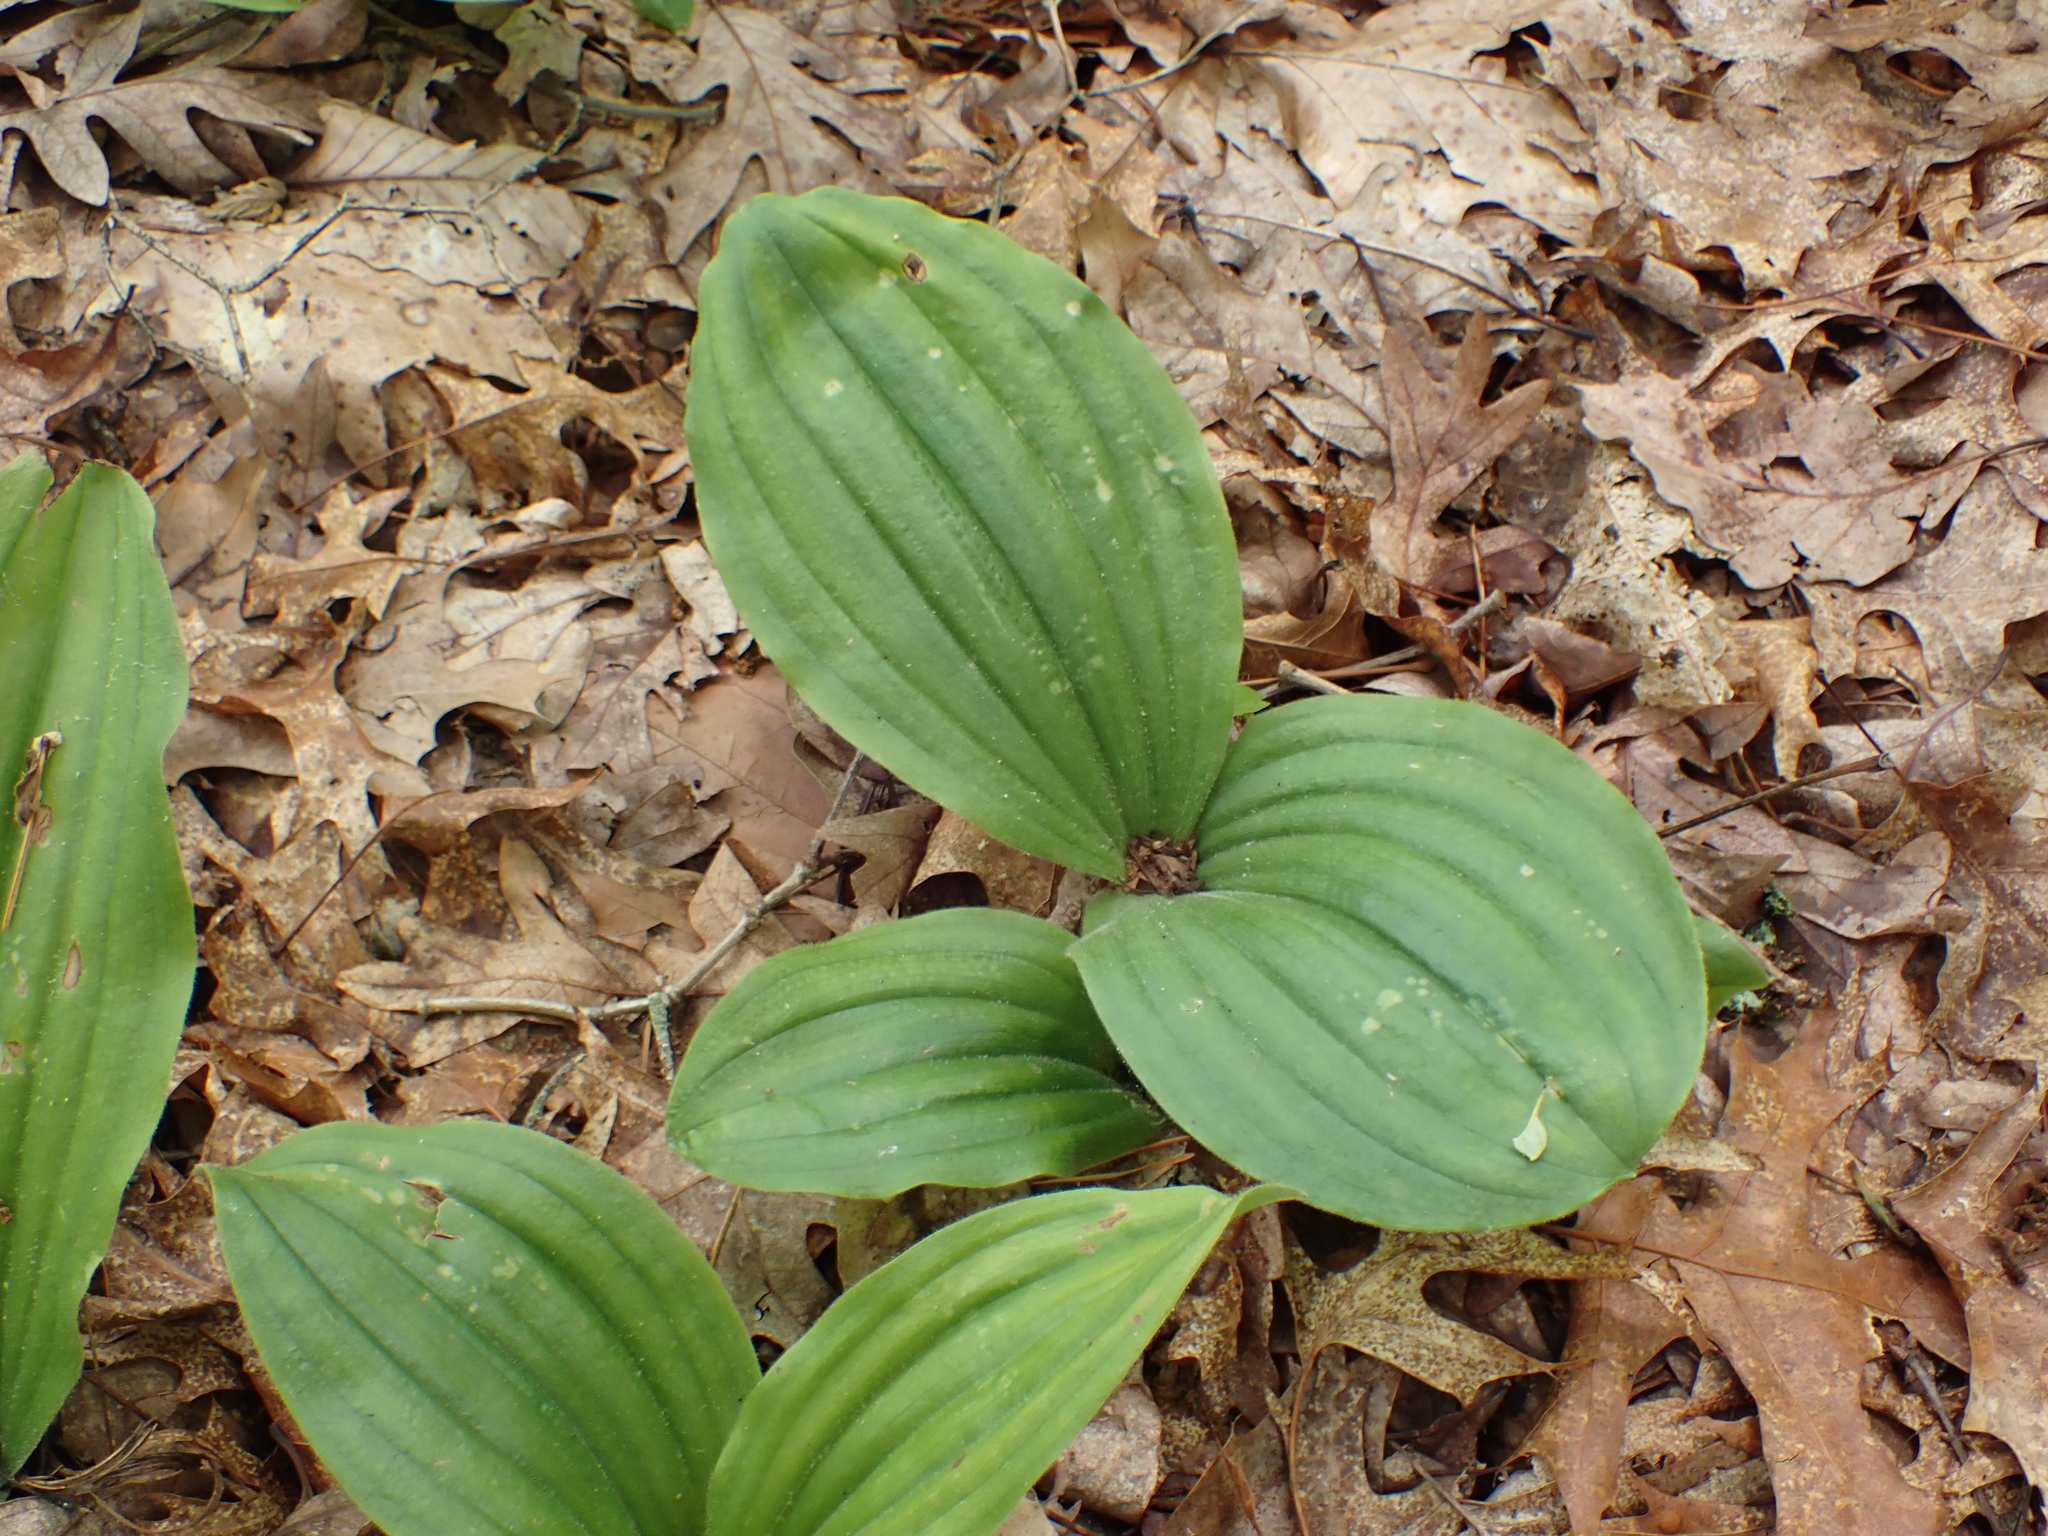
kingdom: Plantae
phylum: Tracheophyta
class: Liliopsida
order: Asparagales
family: Orchidaceae
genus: Cypripedium
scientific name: Cypripedium acaule
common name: Pink lady's-slipper
